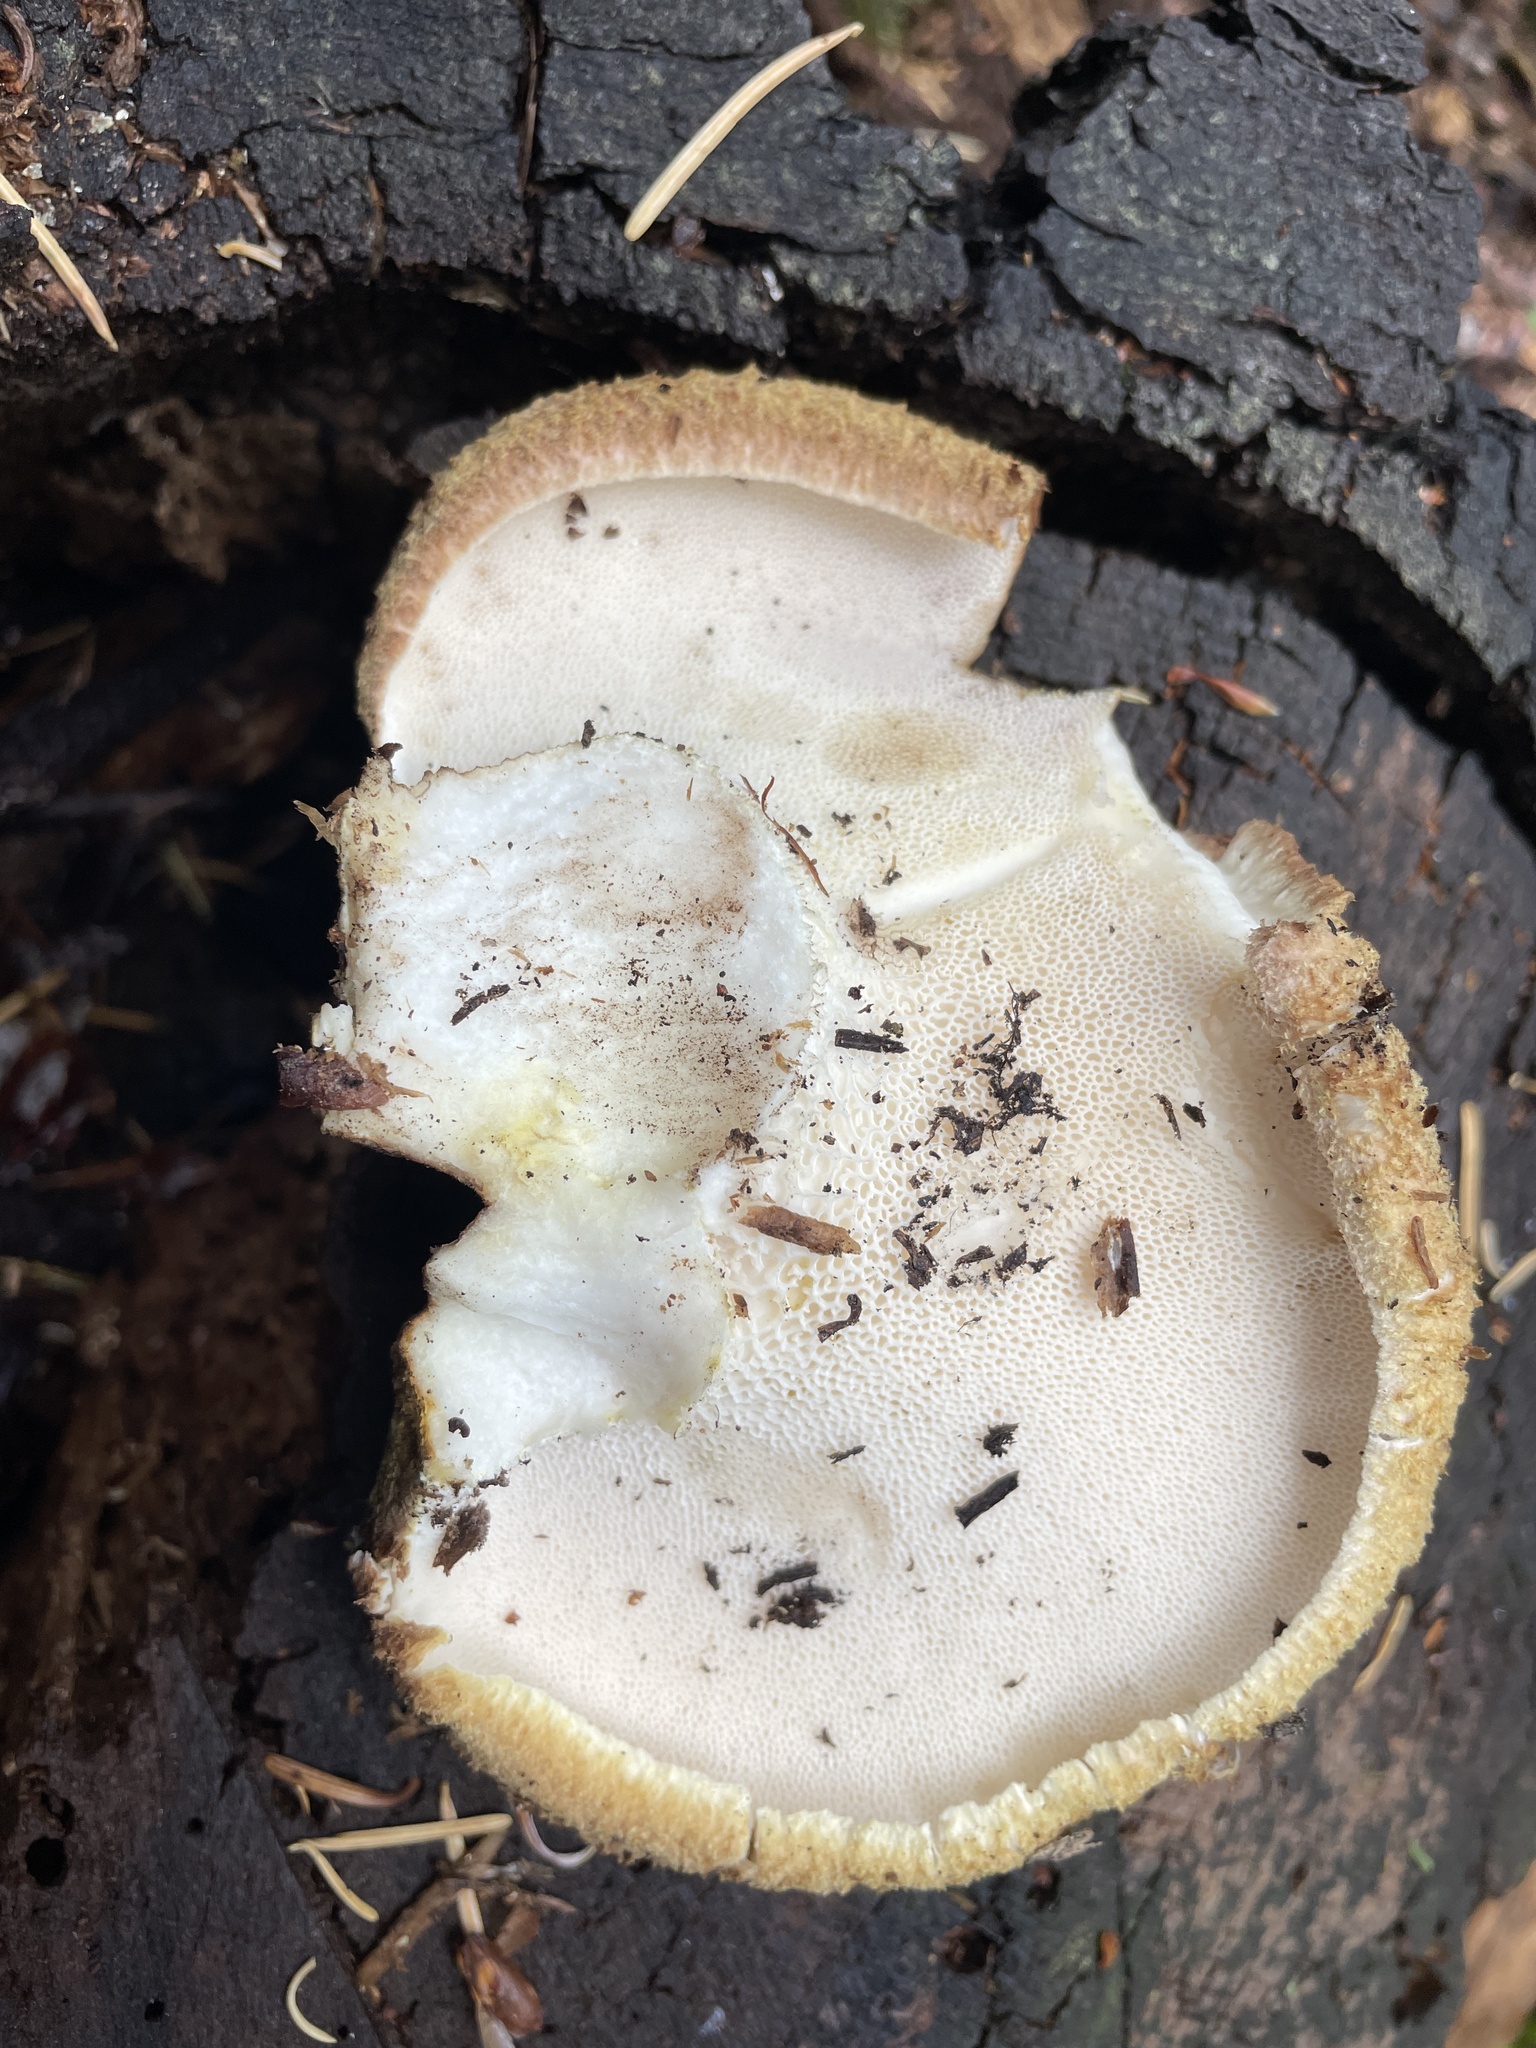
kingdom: Fungi
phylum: Basidiomycota
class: Agaricomycetes
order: Russulales
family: Albatrellaceae
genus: Albatrellopsis
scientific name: Albatrellopsis ellisii
